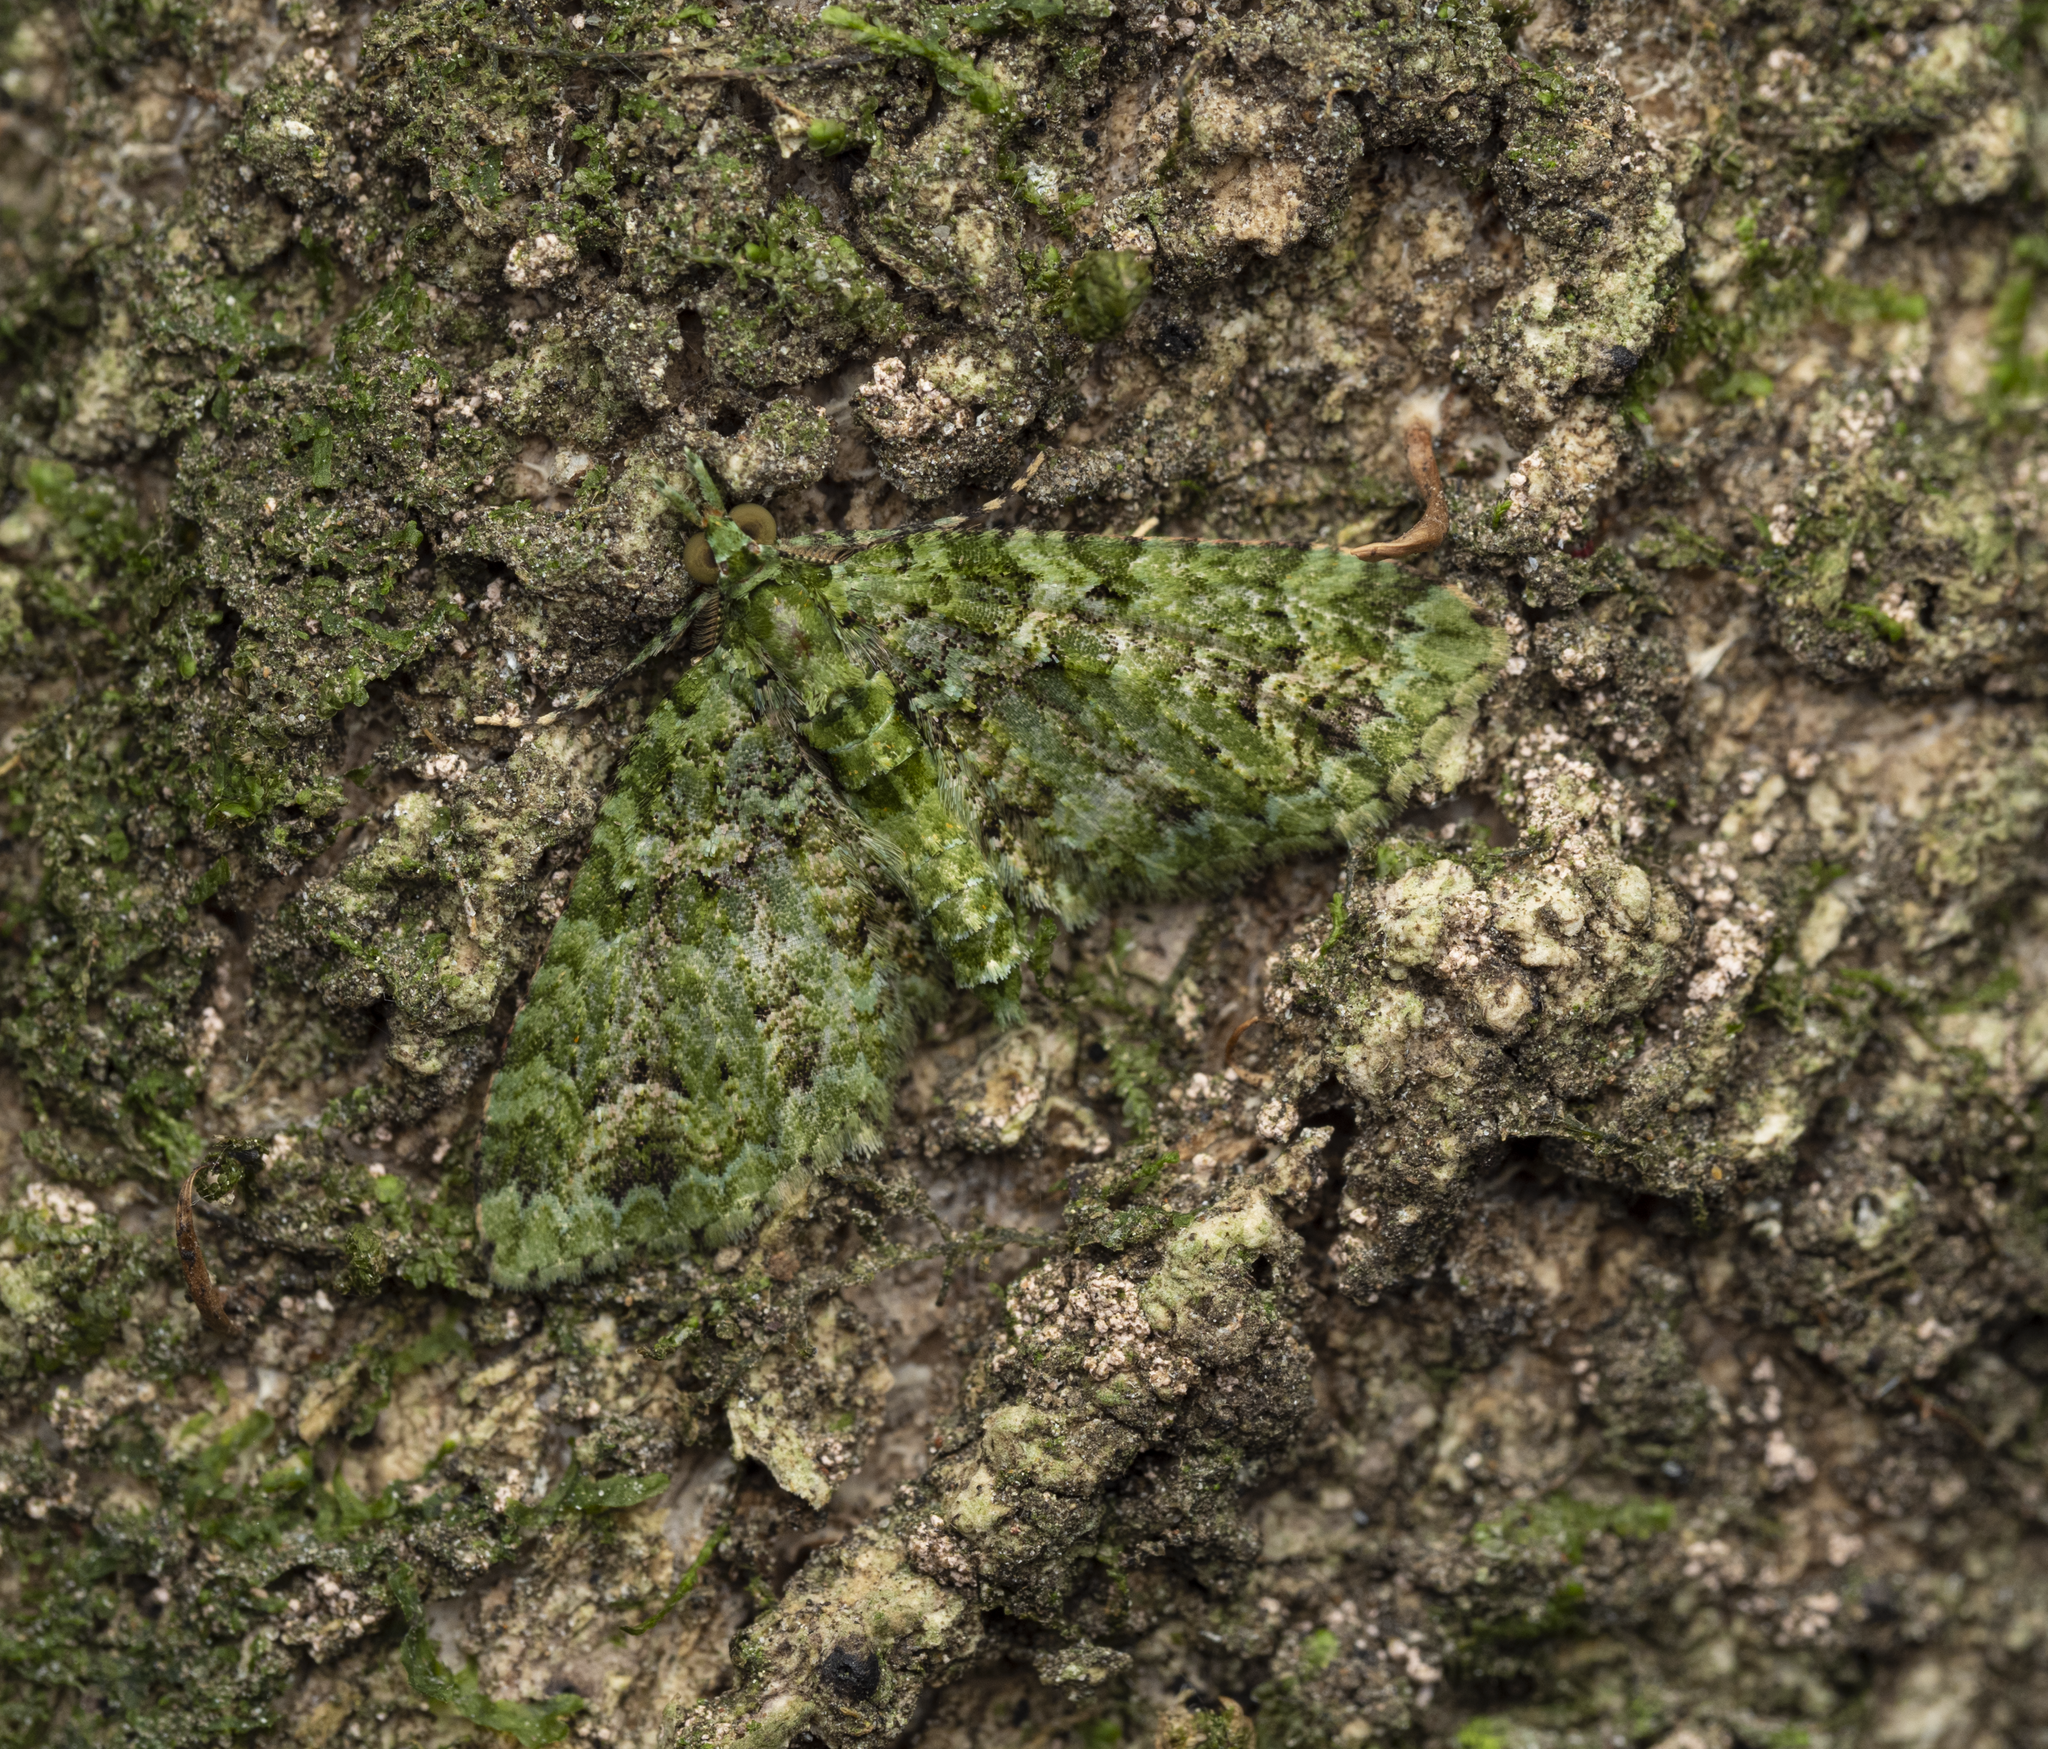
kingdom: Animalia
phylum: Arthropoda
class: Insecta
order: Lepidoptera
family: Geometridae
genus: Pasiphila
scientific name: Pasiphila muscosata
